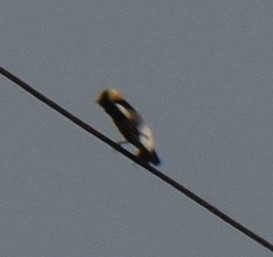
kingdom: Animalia
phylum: Chordata
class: Aves
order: Passeriformes
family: Icteridae
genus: Dolichonyx
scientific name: Dolichonyx oryzivorus
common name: Bobolink
